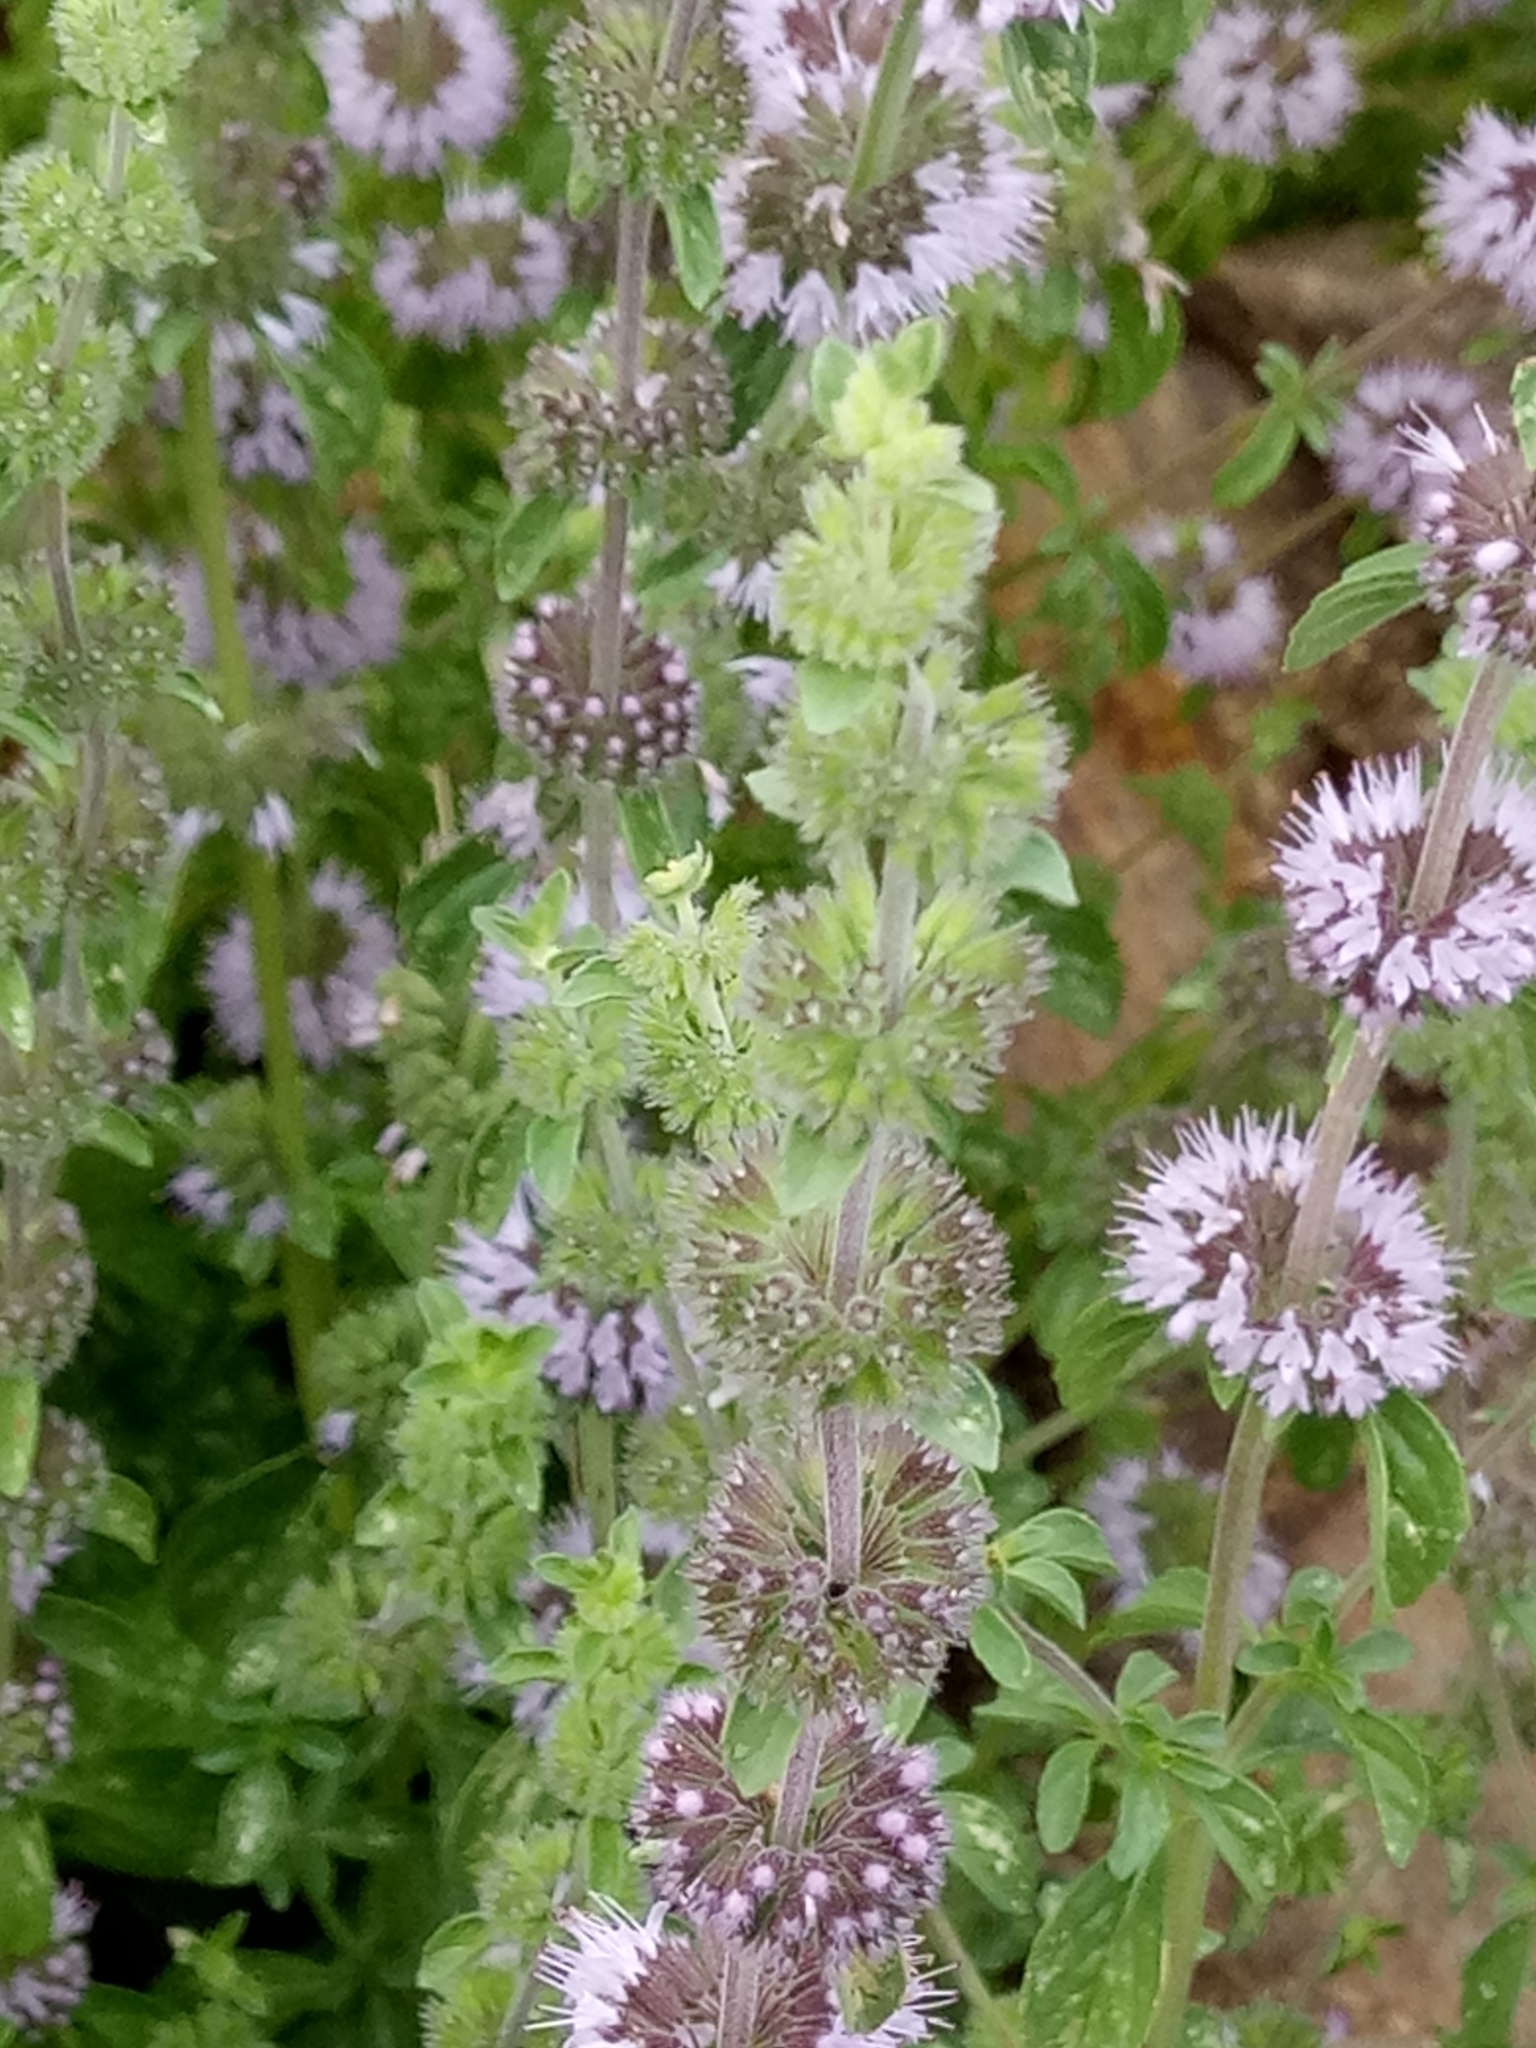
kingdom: Plantae
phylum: Tracheophyta
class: Magnoliopsida
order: Lamiales
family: Lamiaceae
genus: Mentha
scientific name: Mentha pulegium
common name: Pennyroyal
